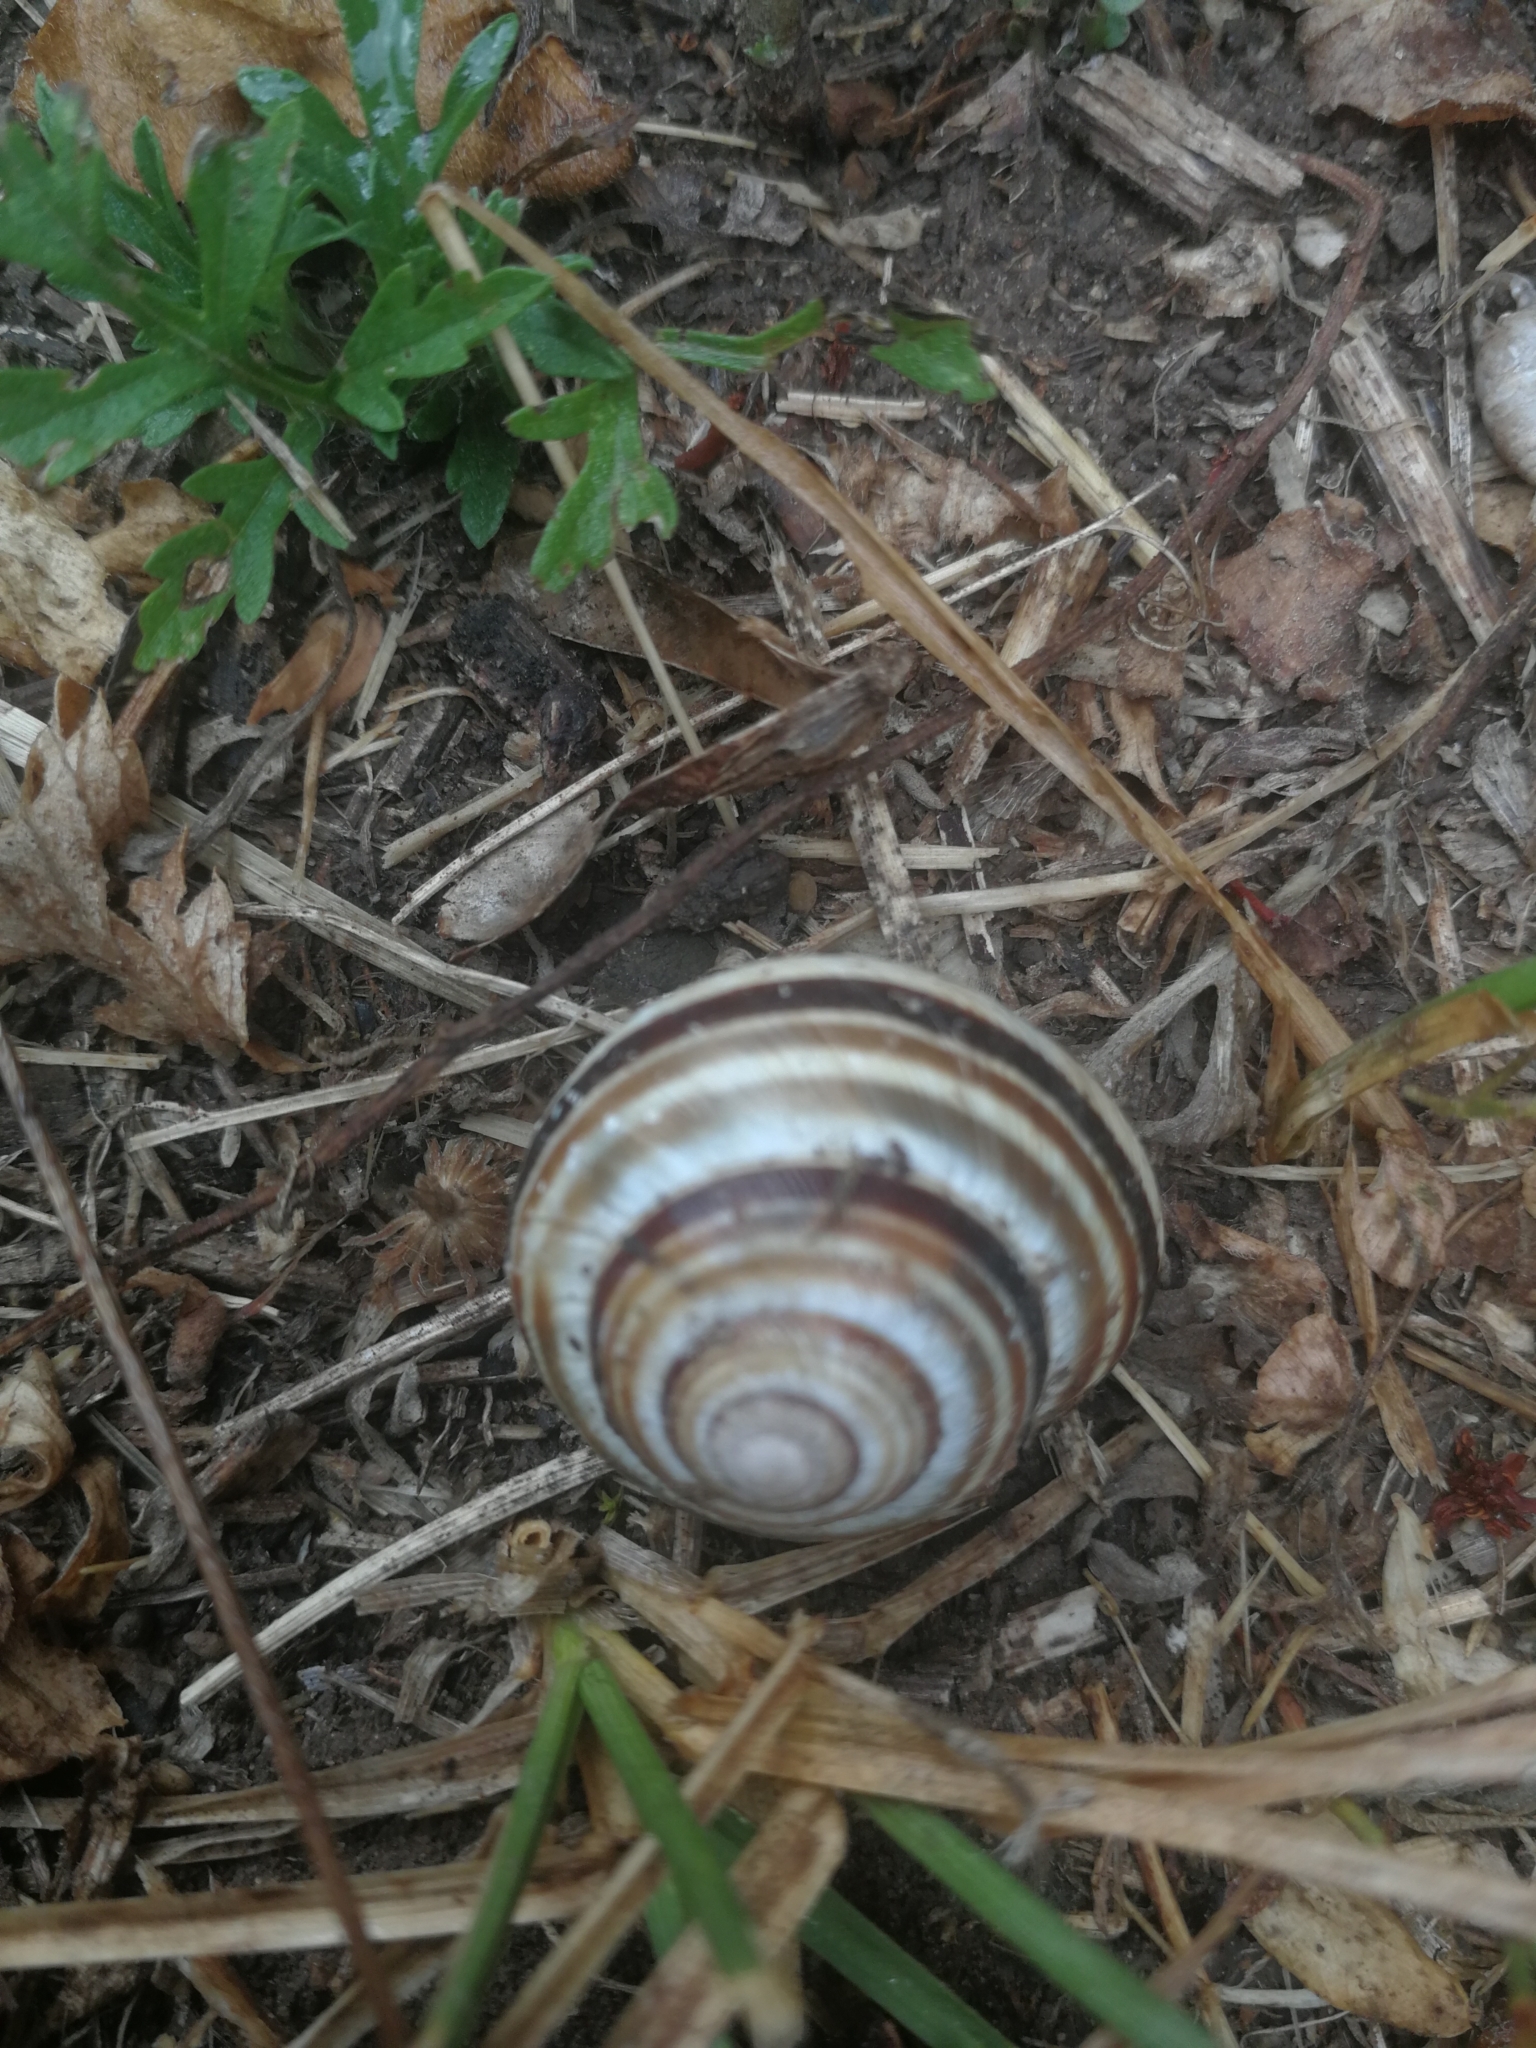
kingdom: Animalia
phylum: Mollusca
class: Gastropoda
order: Stylommatophora
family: Helicidae
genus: Caucasotachea
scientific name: Caucasotachea vindobonensis
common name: European helicid land snail
